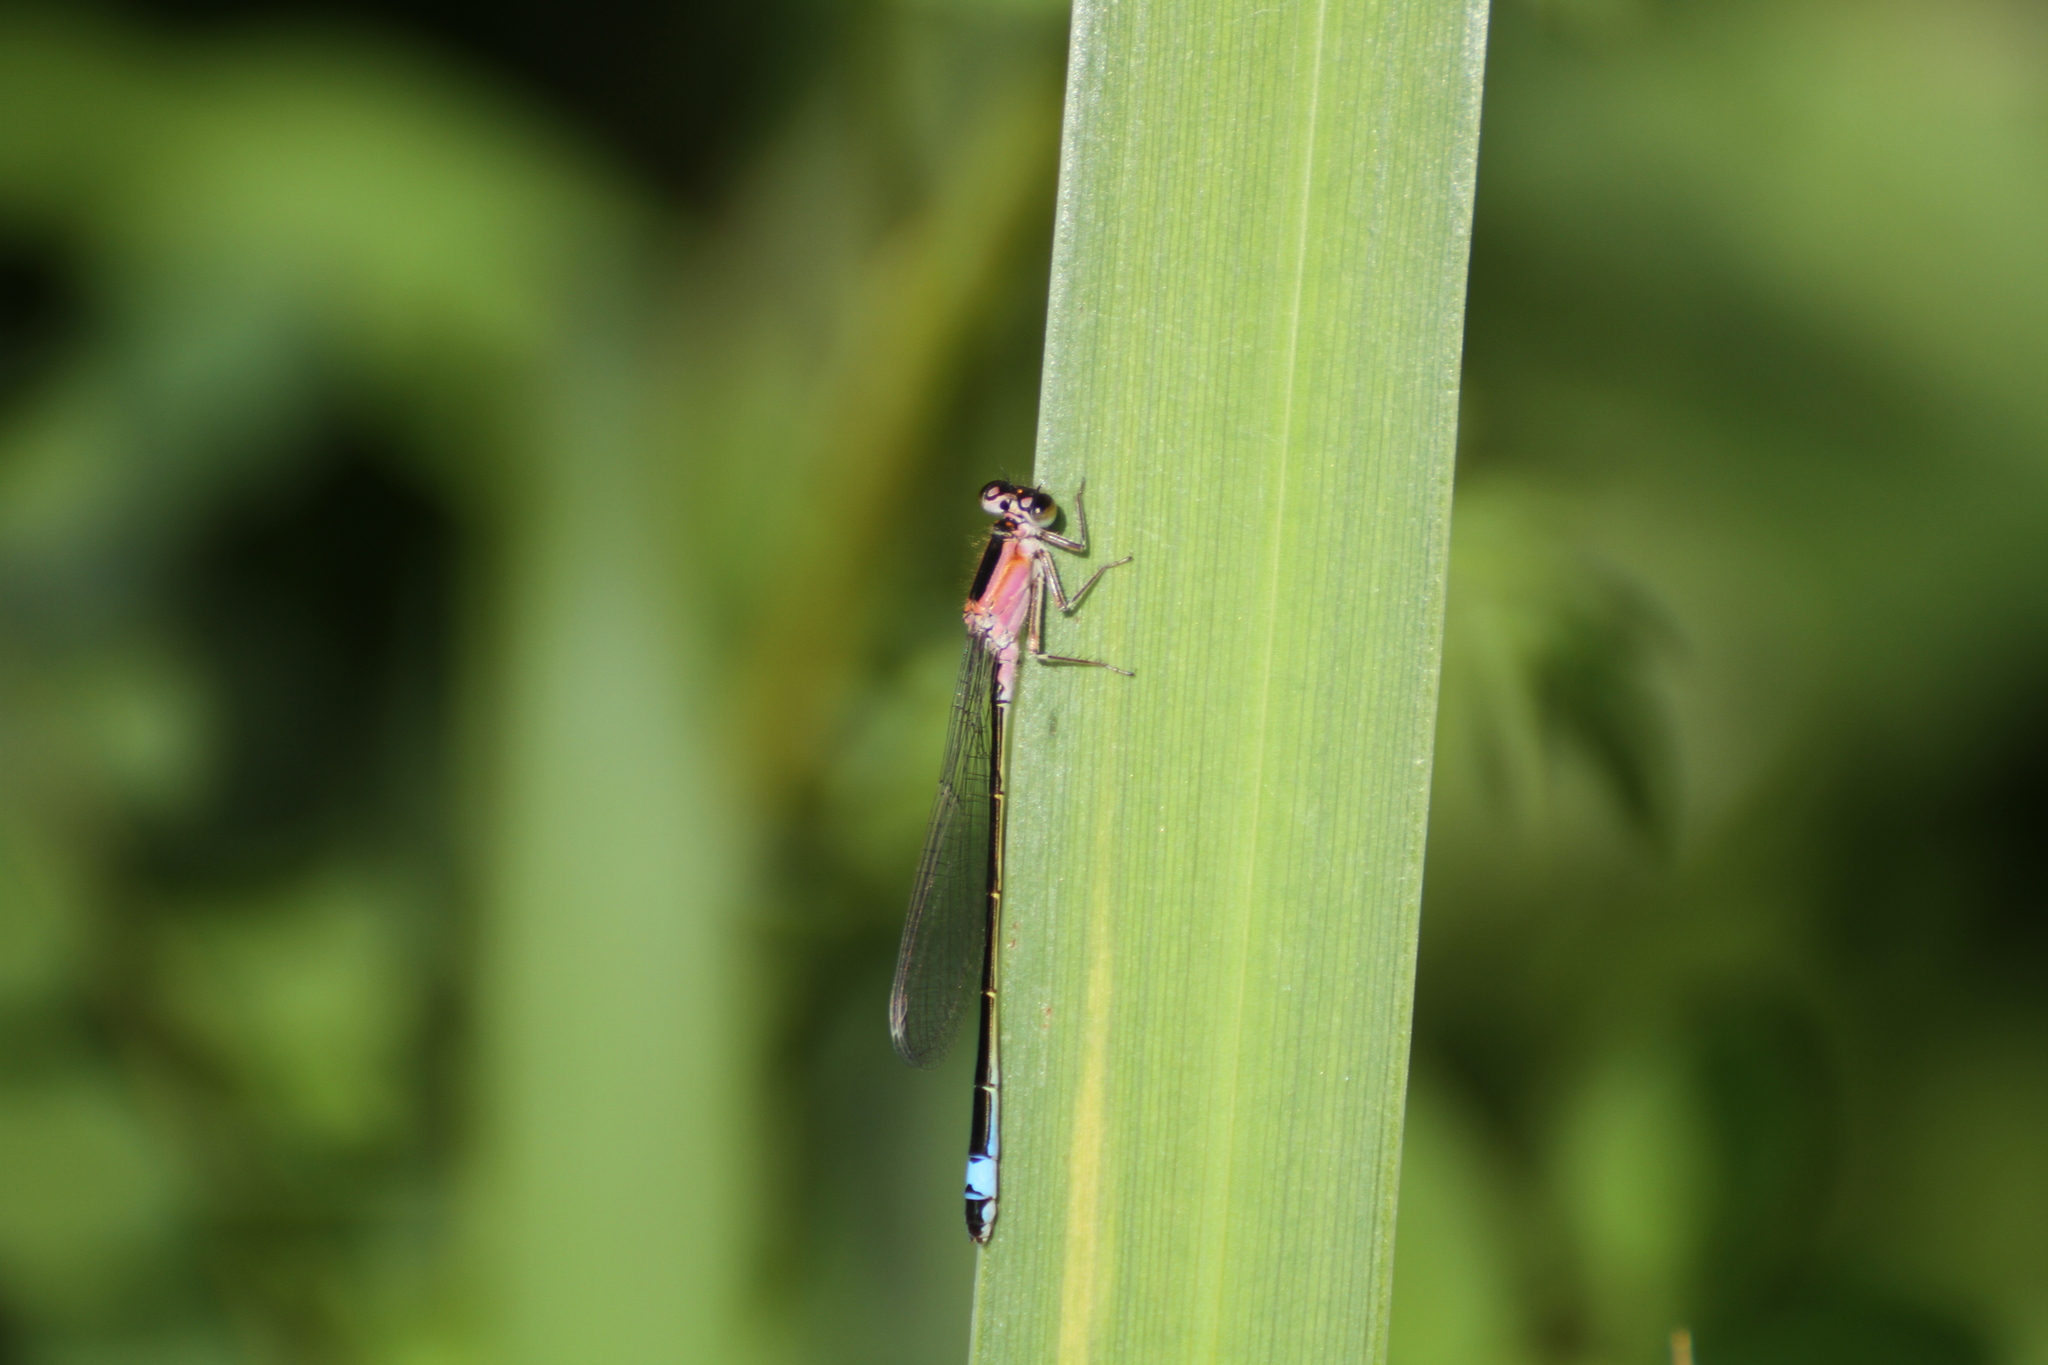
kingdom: Animalia
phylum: Arthropoda
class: Insecta
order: Odonata
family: Coenagrionidae
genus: Ischnura
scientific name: Ischnura elegans
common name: Blue-tailed damselfly
